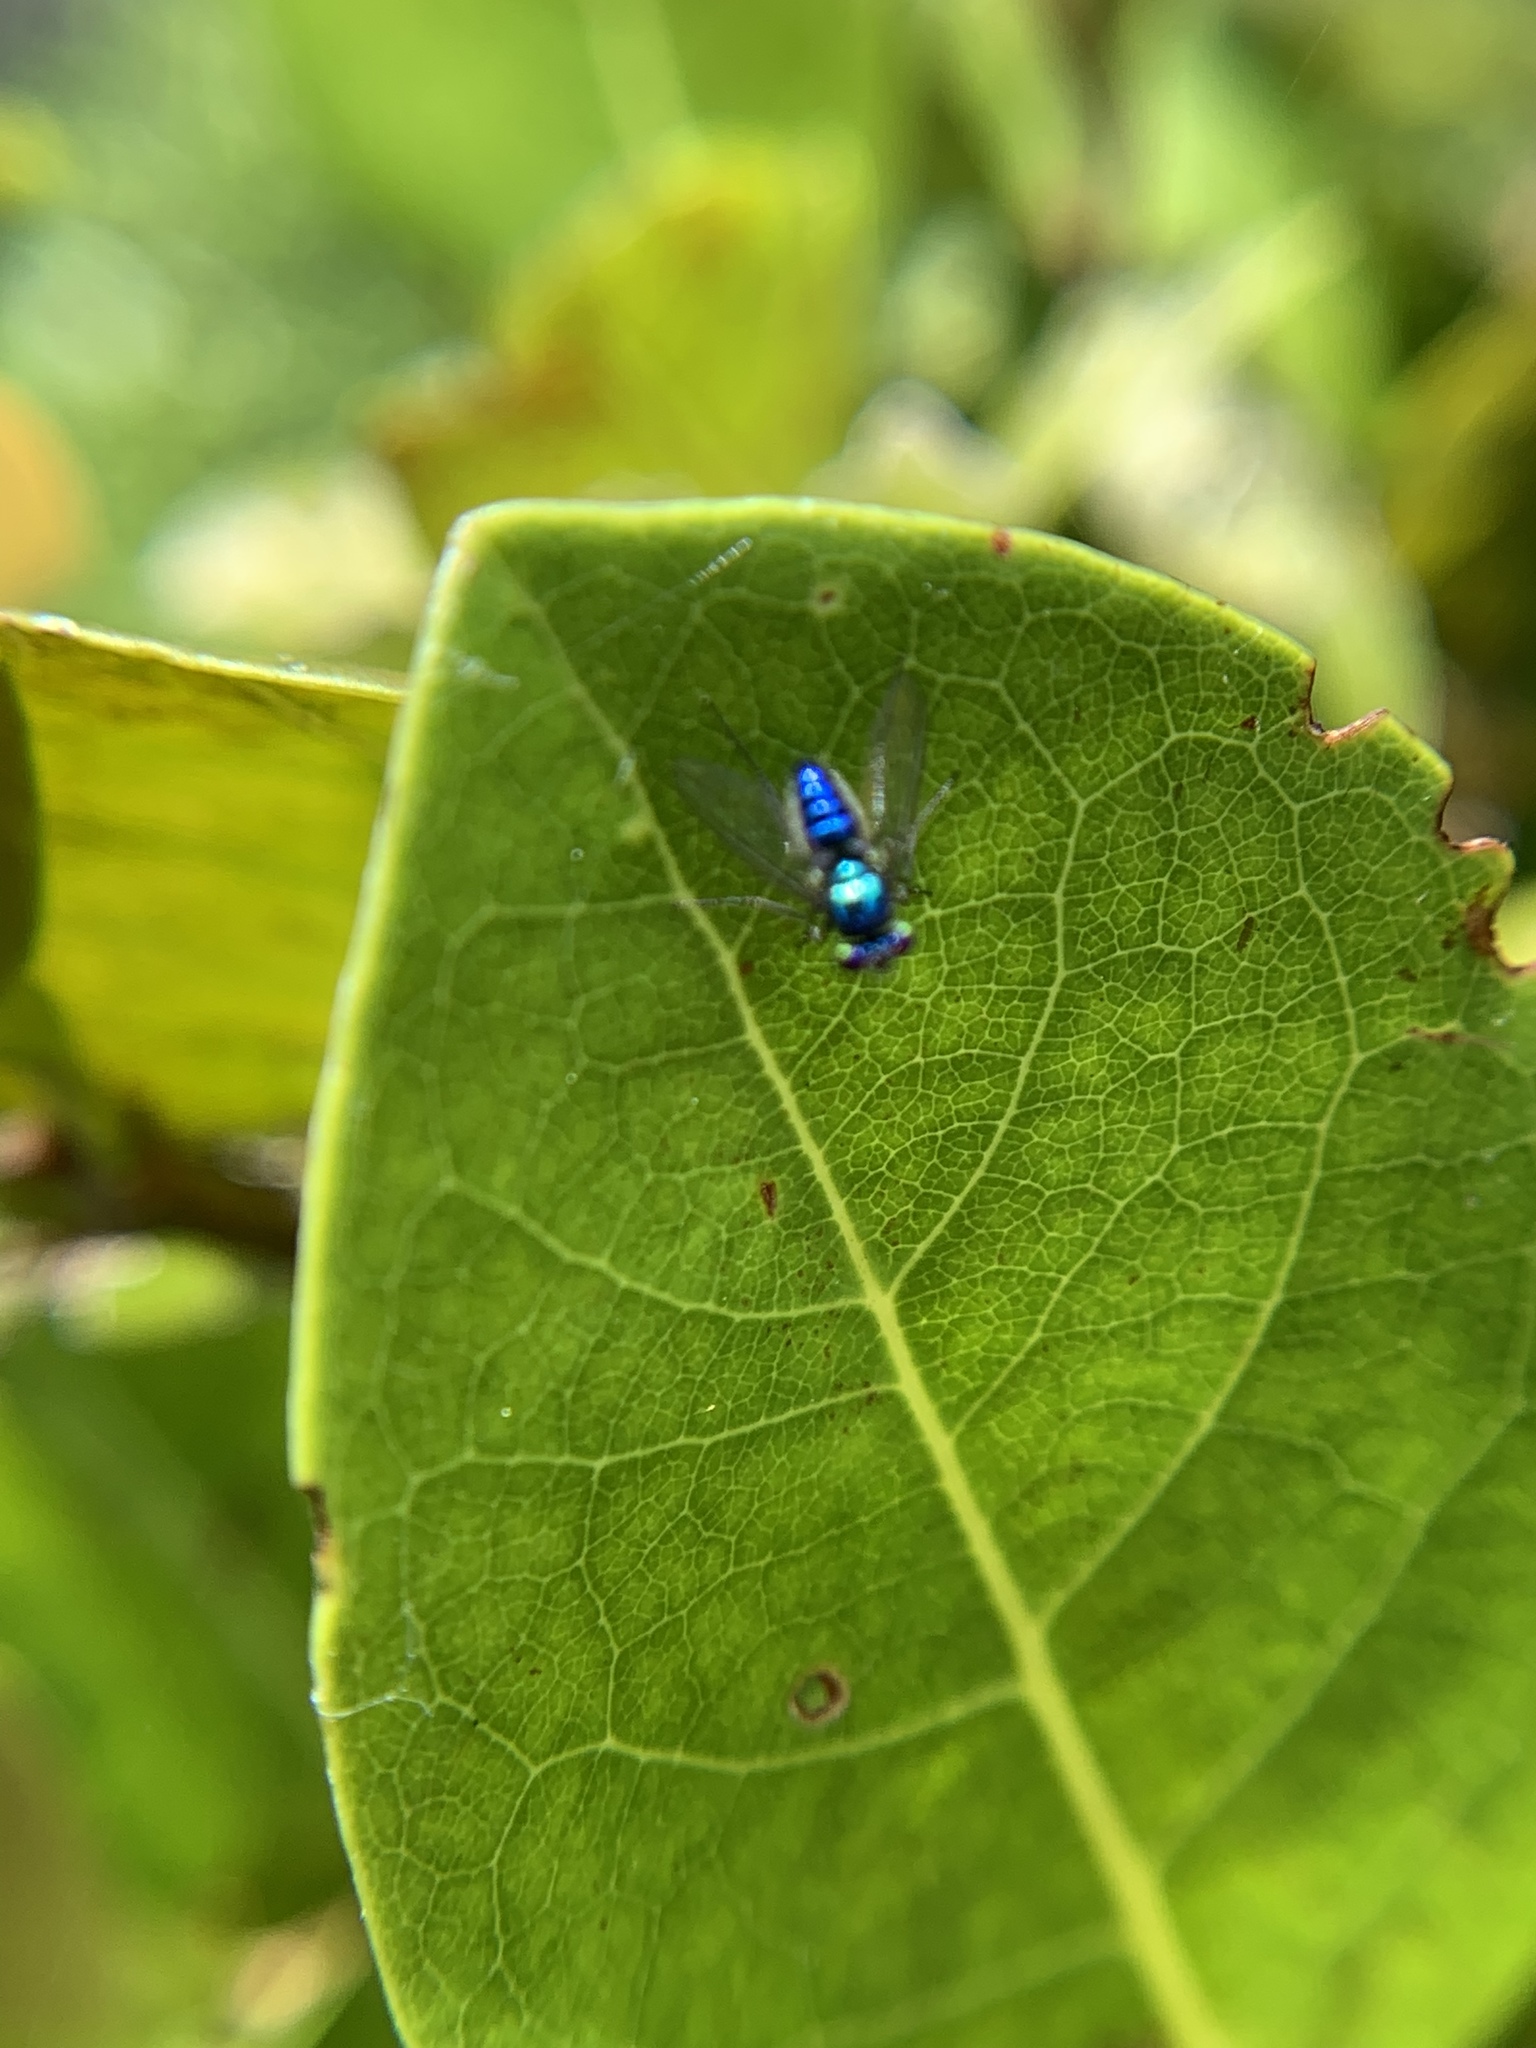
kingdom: Animalia
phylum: Arthropoda
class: Insecta
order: Diptera
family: Dolichopodidae
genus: Condylostylus
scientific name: Condylostylus mundus
